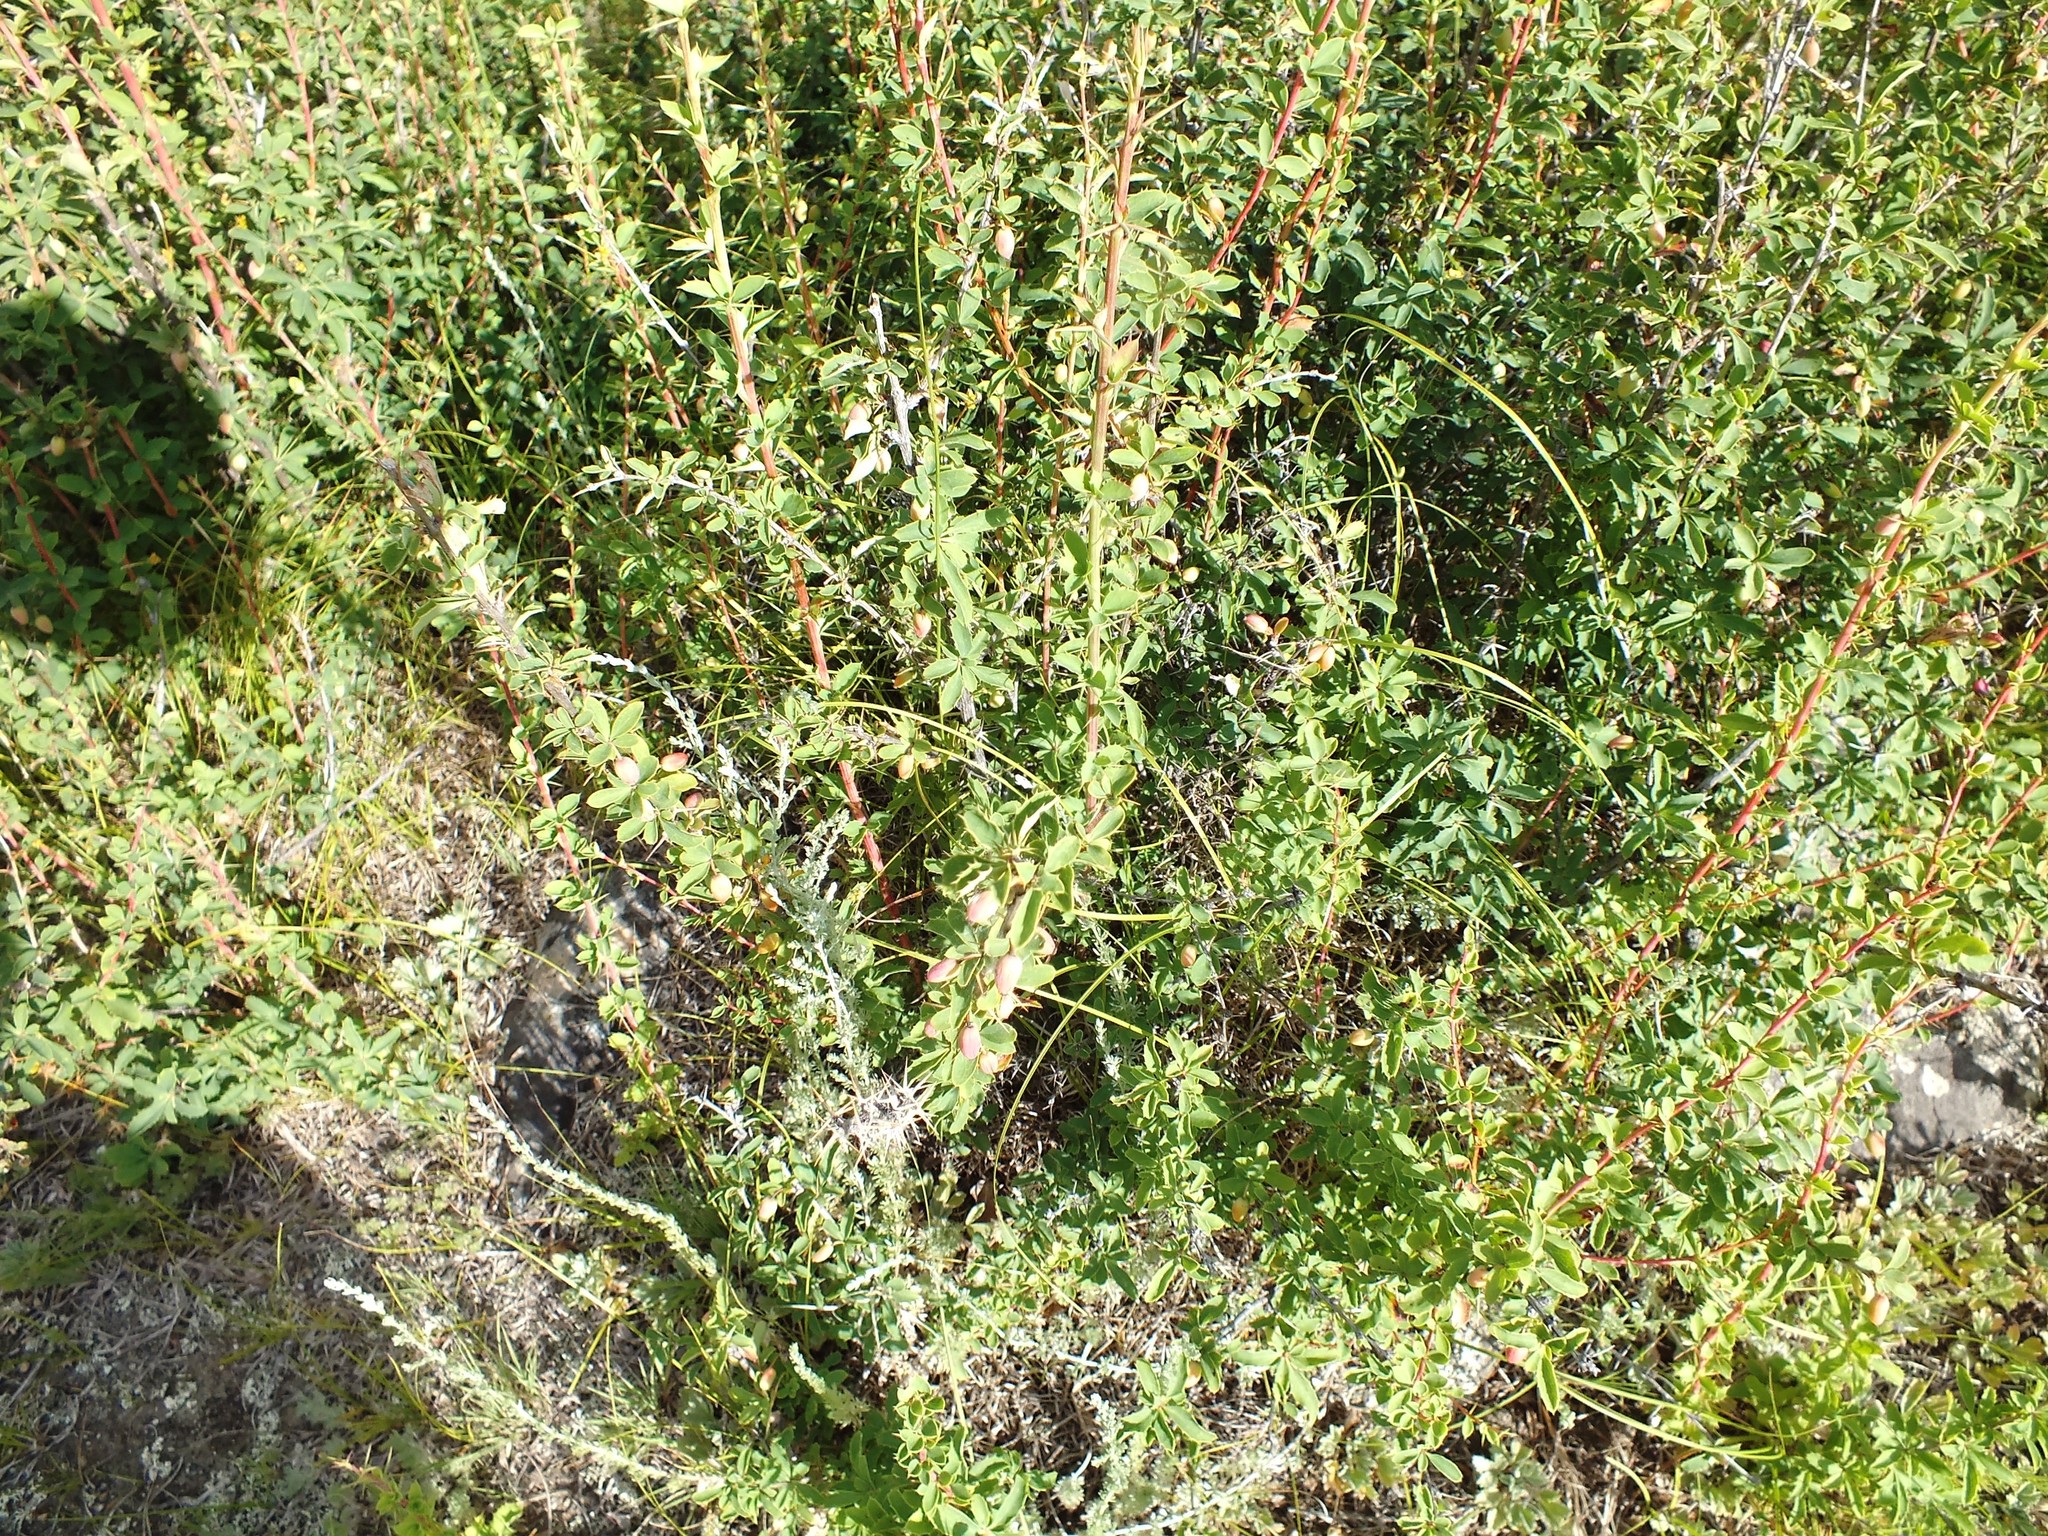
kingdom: Plantae
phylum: Tracheophyta
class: Magnoliopsida
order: Ranunculales
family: Berberidaceae
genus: Berberis
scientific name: Berberis sibirica
